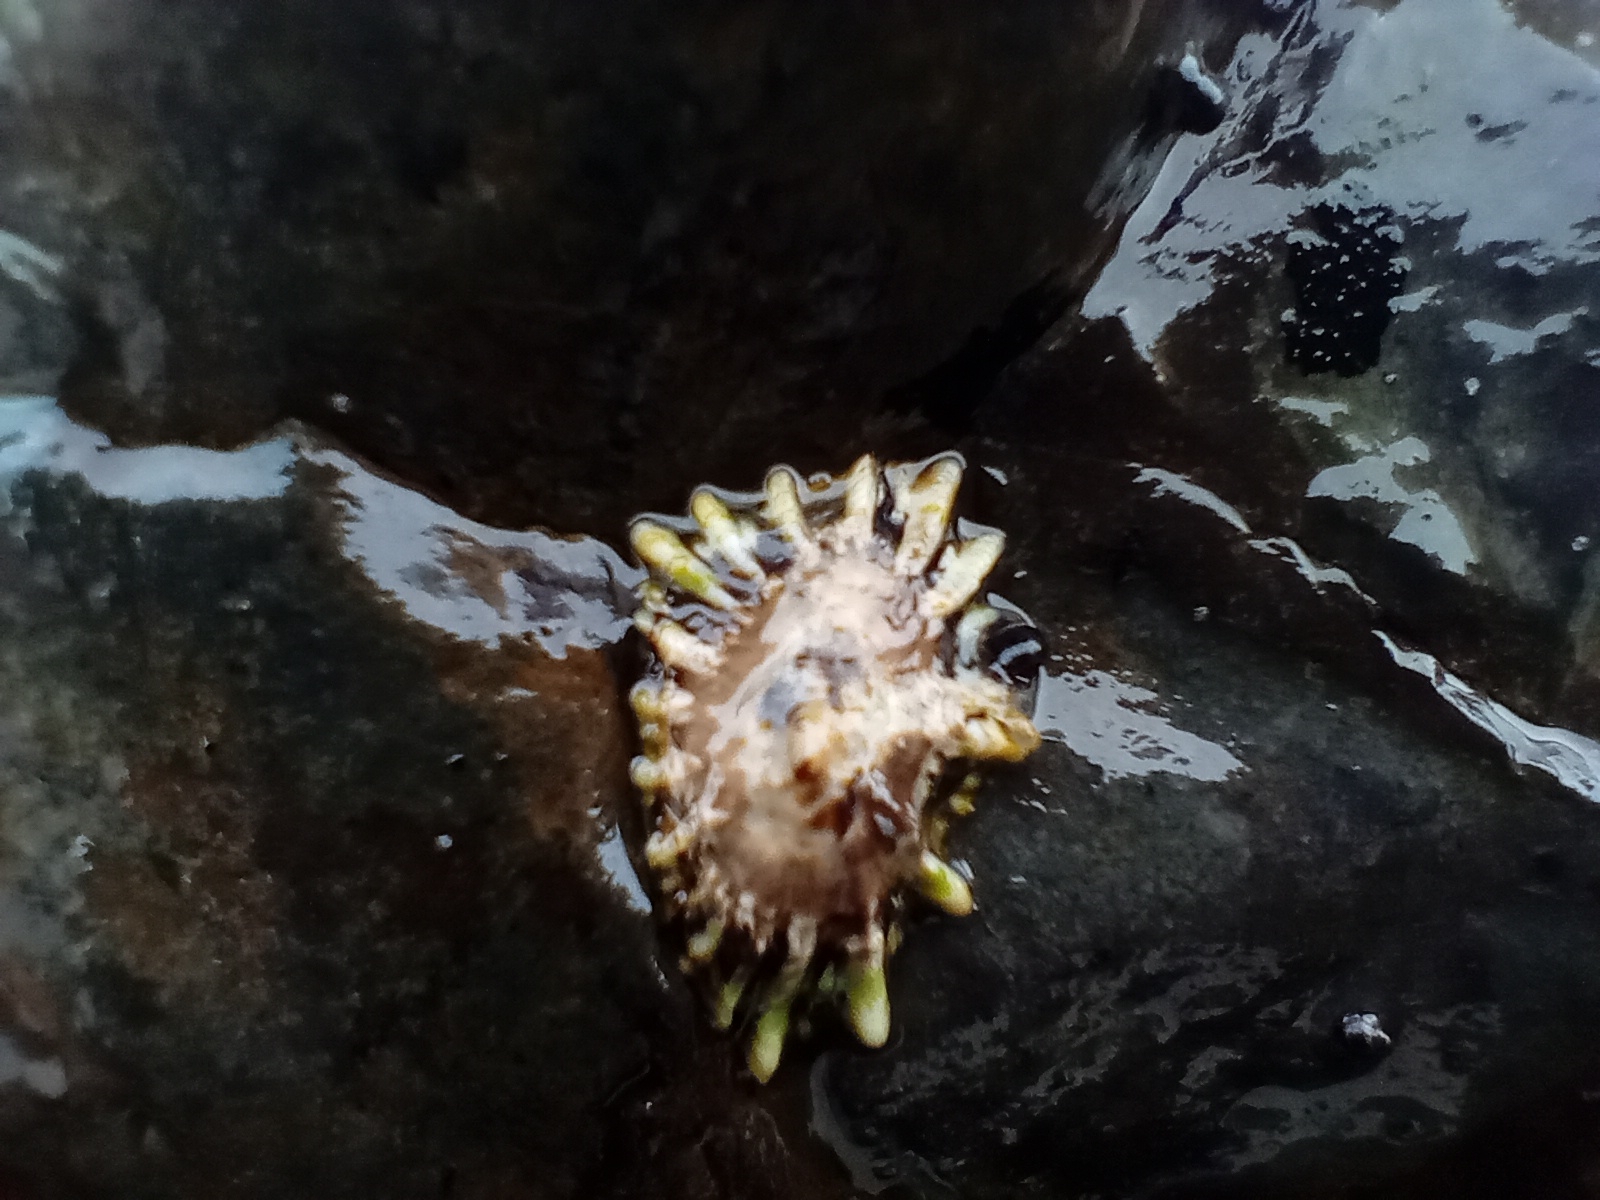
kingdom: Animalia
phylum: Mollusca
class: Gastropoda
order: Siphonariida
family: Siphonariidae
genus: Siphonaria
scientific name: Siphonaria australis
